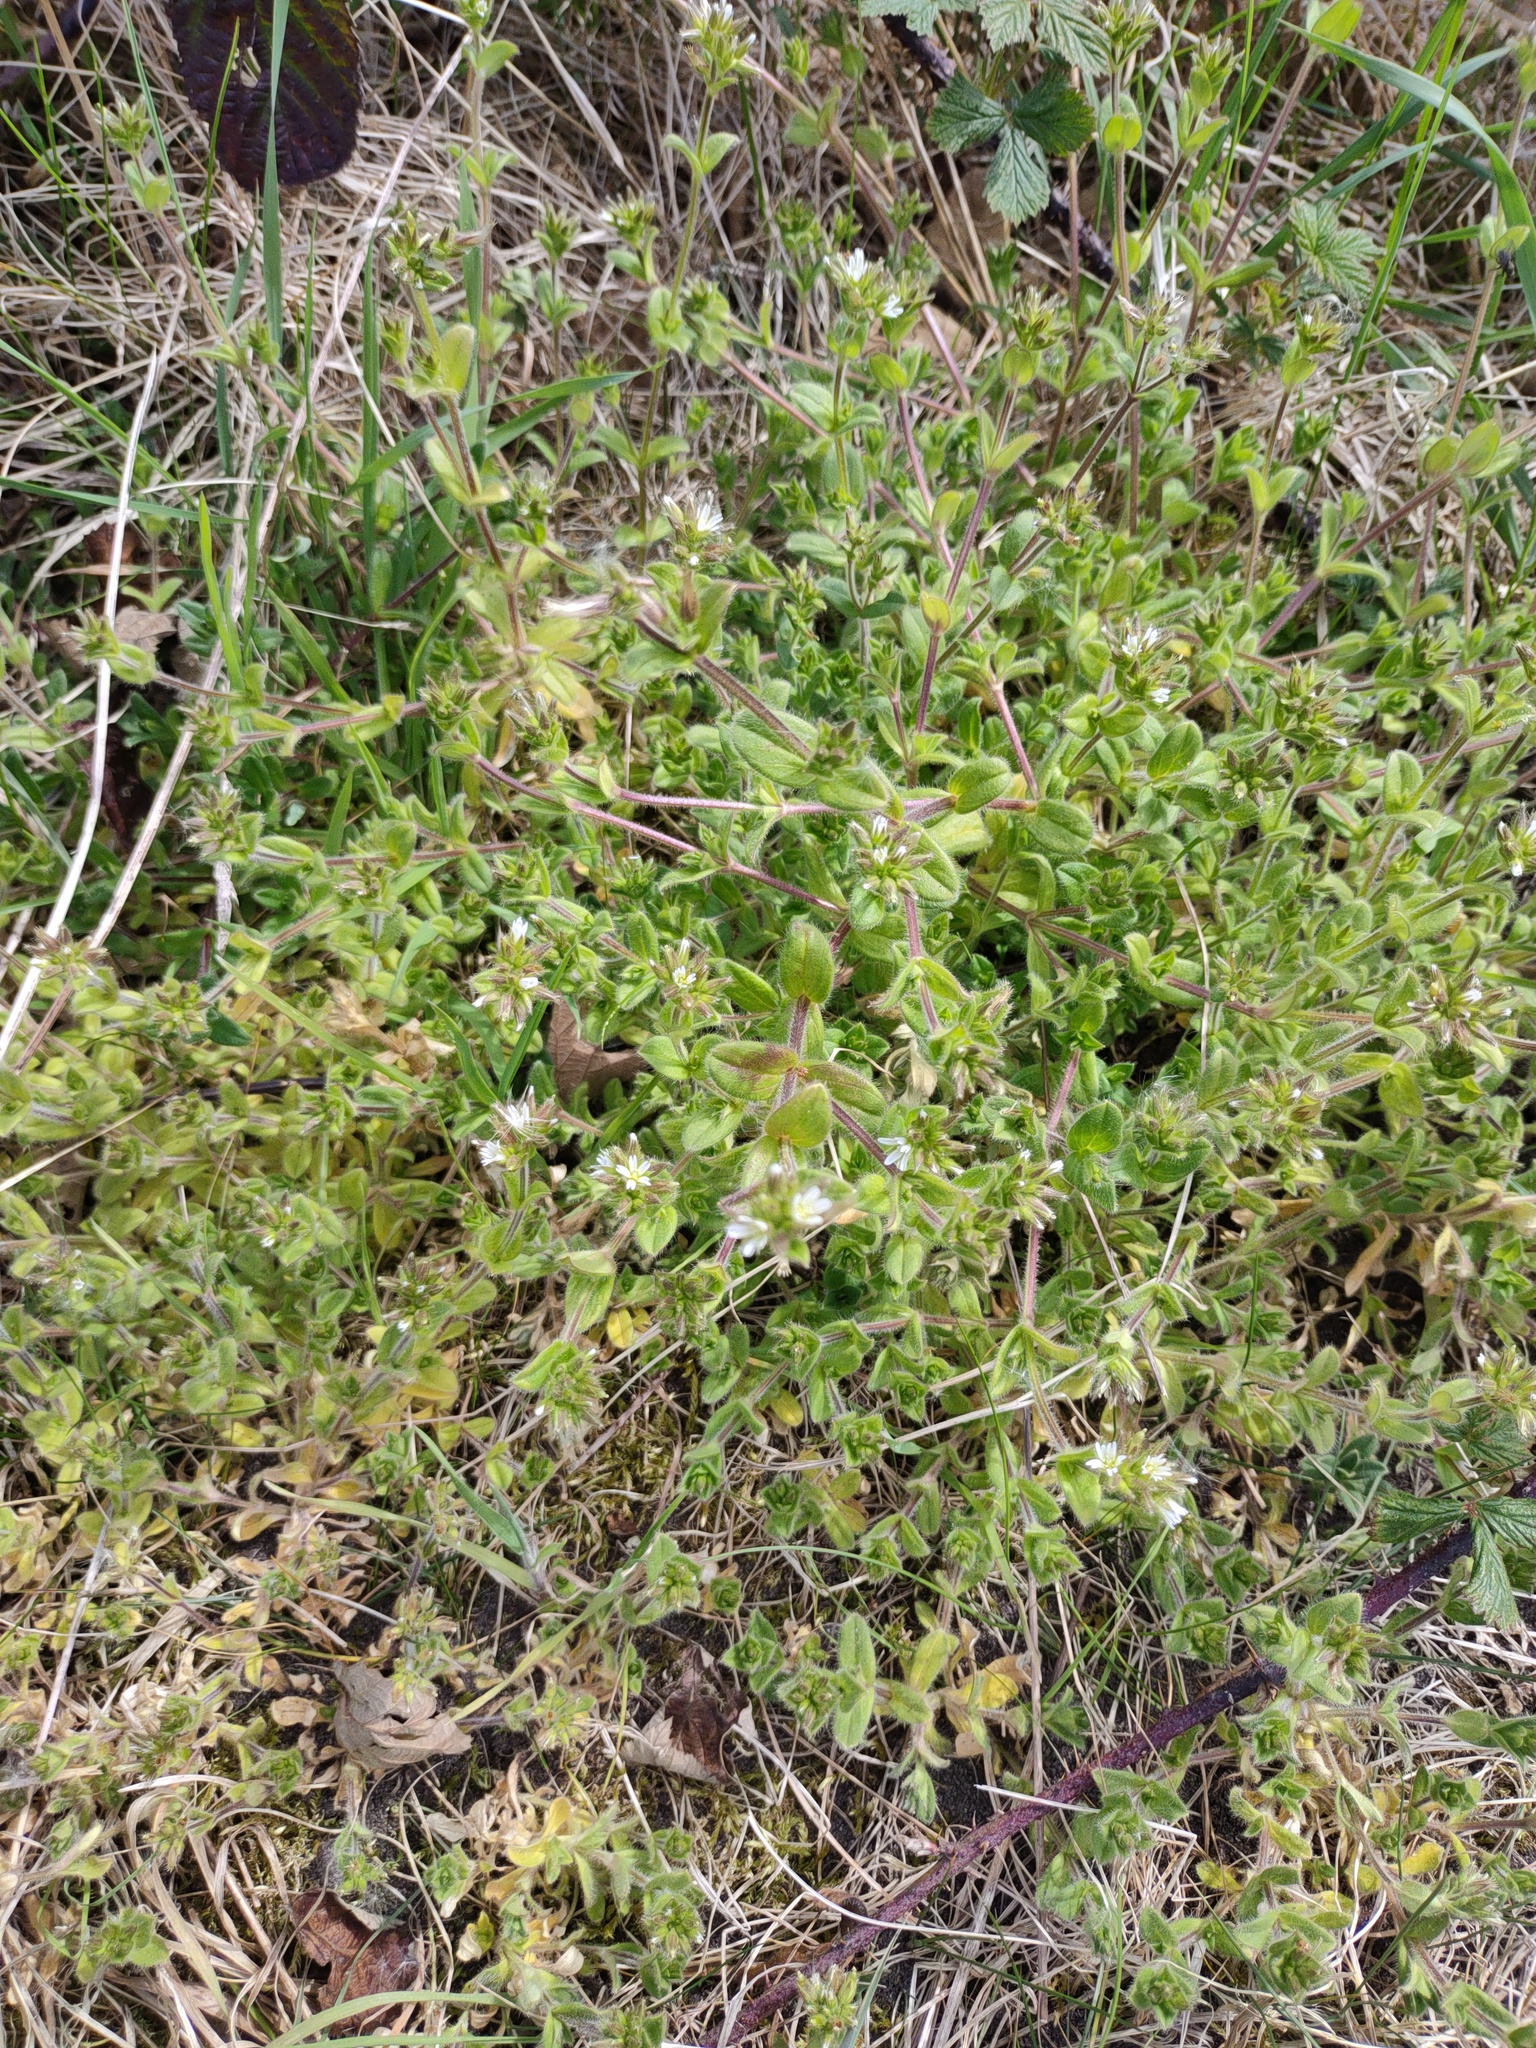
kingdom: Plantae
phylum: Tracheophyta
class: Magnoliopsida
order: Caryophyllales
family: Caryophyllaceae
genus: Cerastium
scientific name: Cerastium glomeratum
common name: Sticky chickweed
